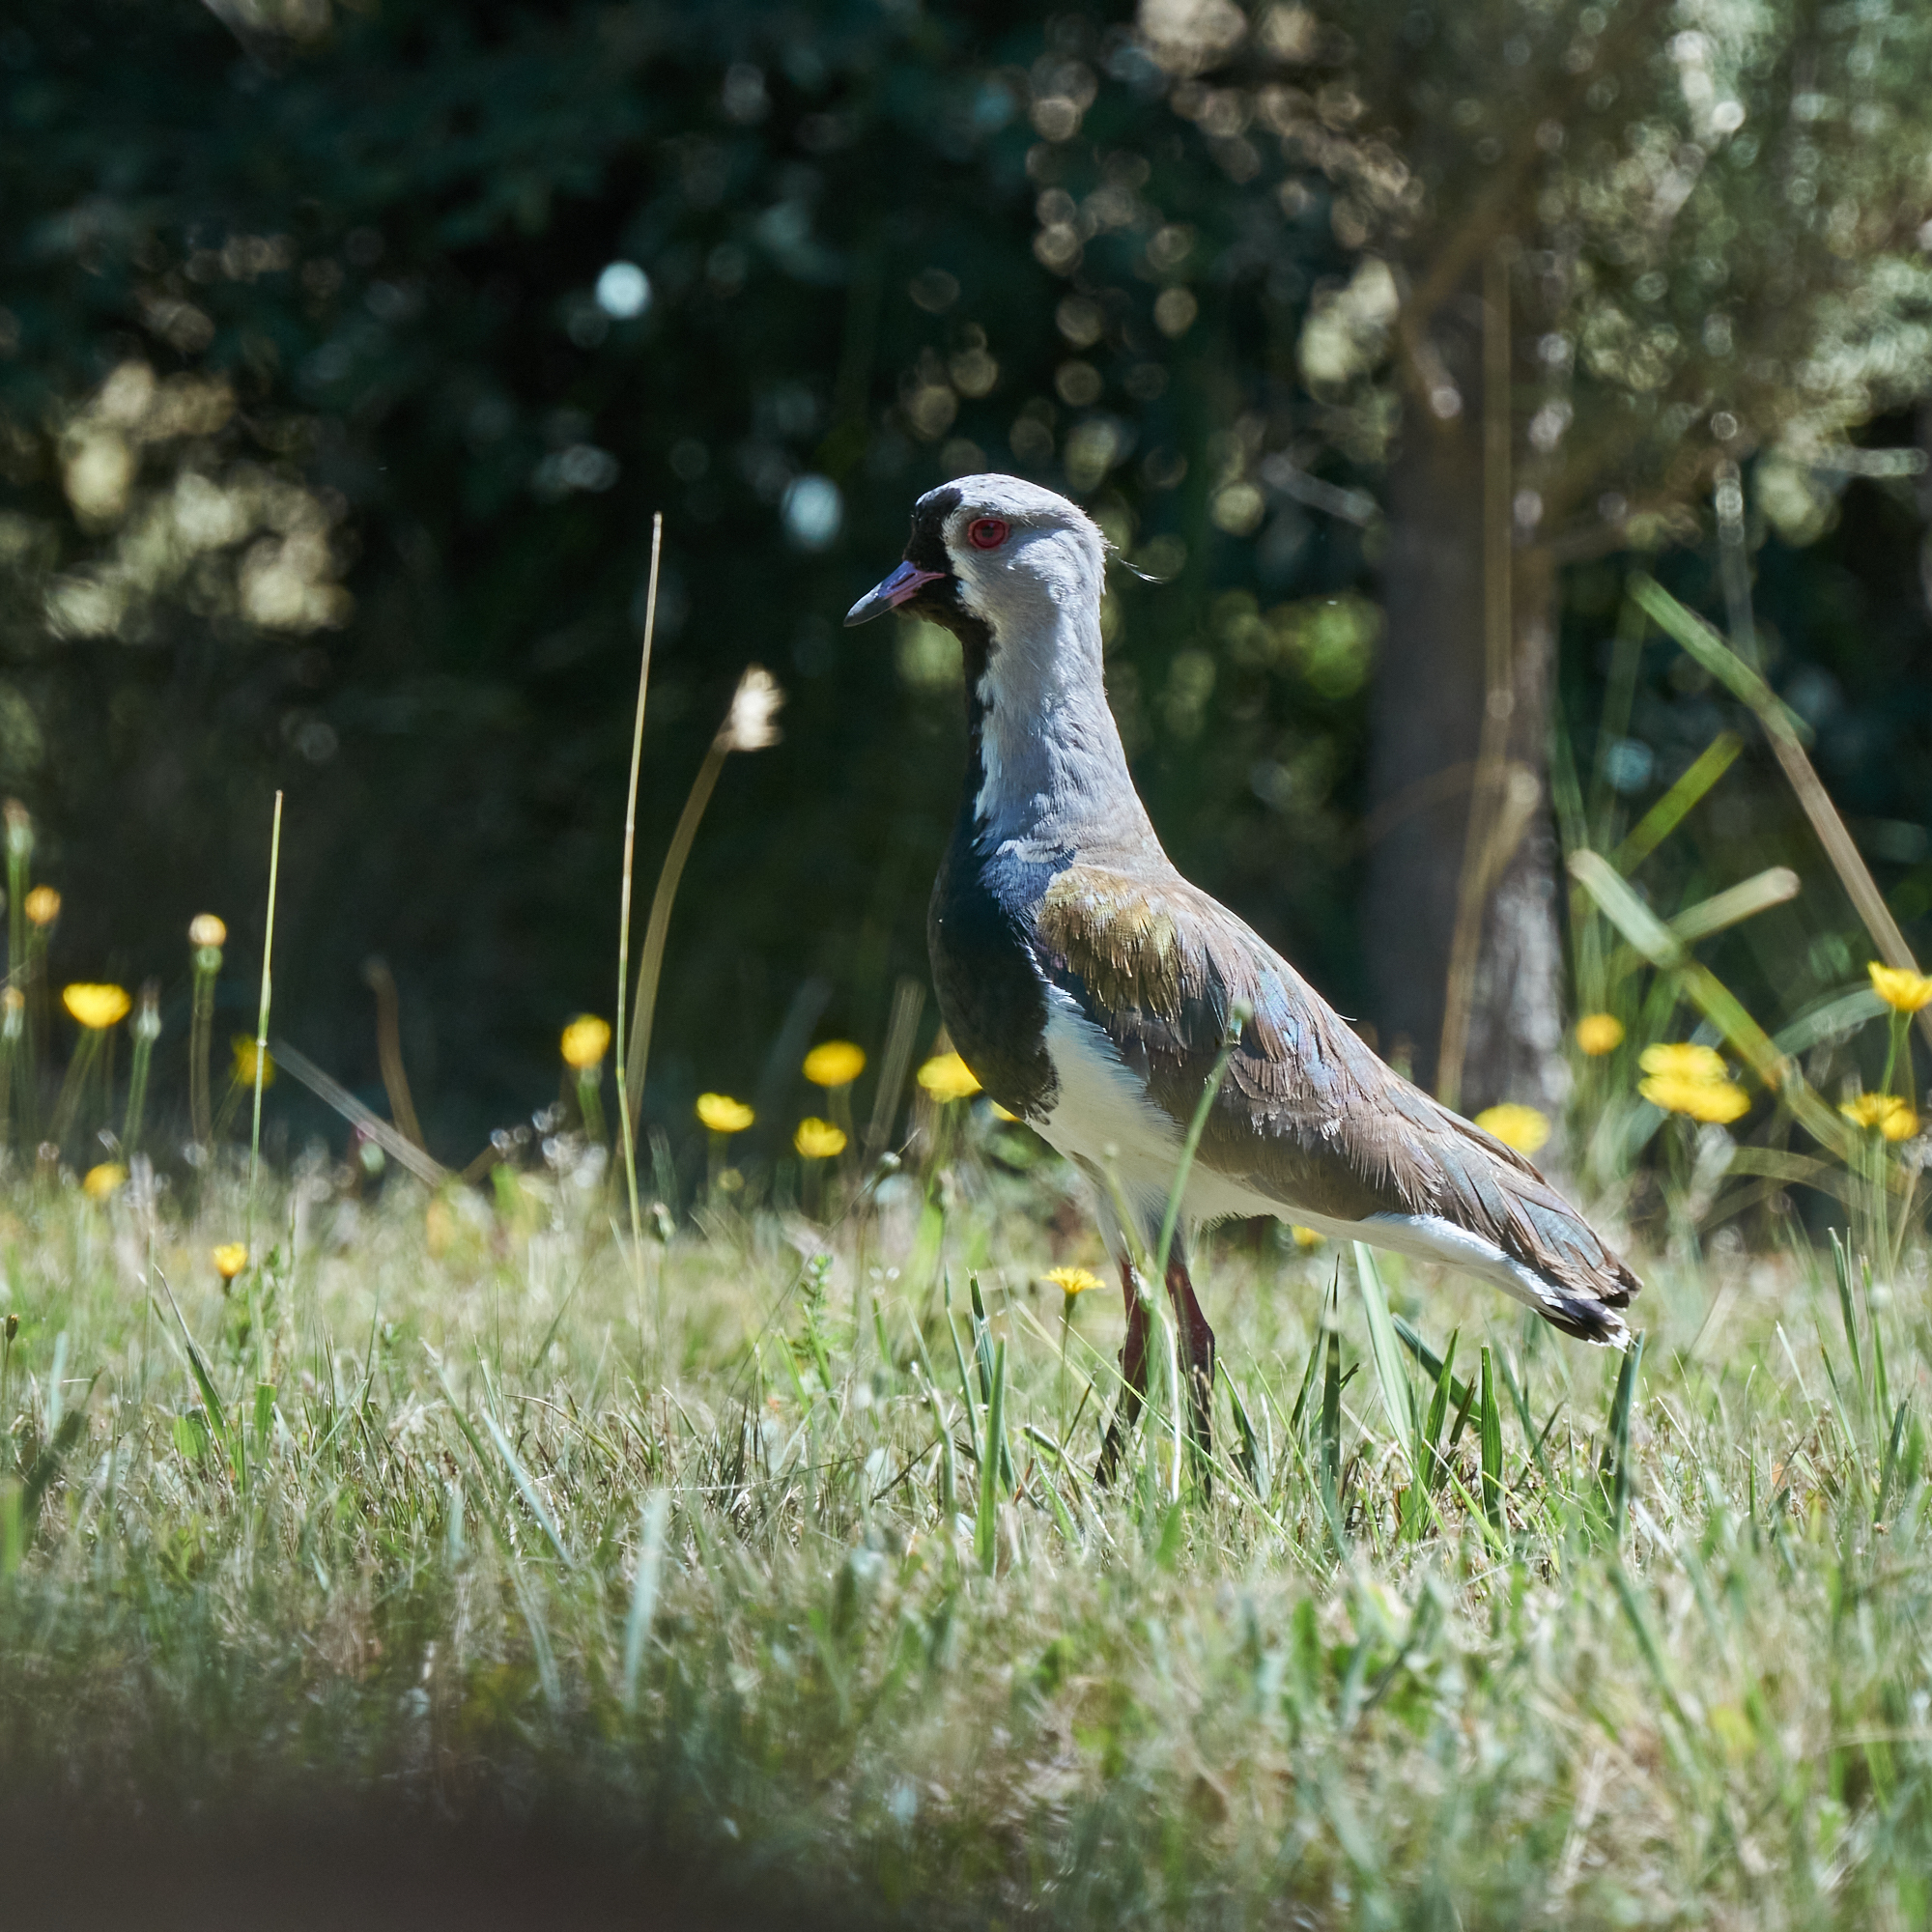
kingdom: Animalia
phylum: Chordata
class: Aves
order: Charadriiformes
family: Charadriidae
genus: Vanellus
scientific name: Vanellus chilensis
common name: Southern lapwing
